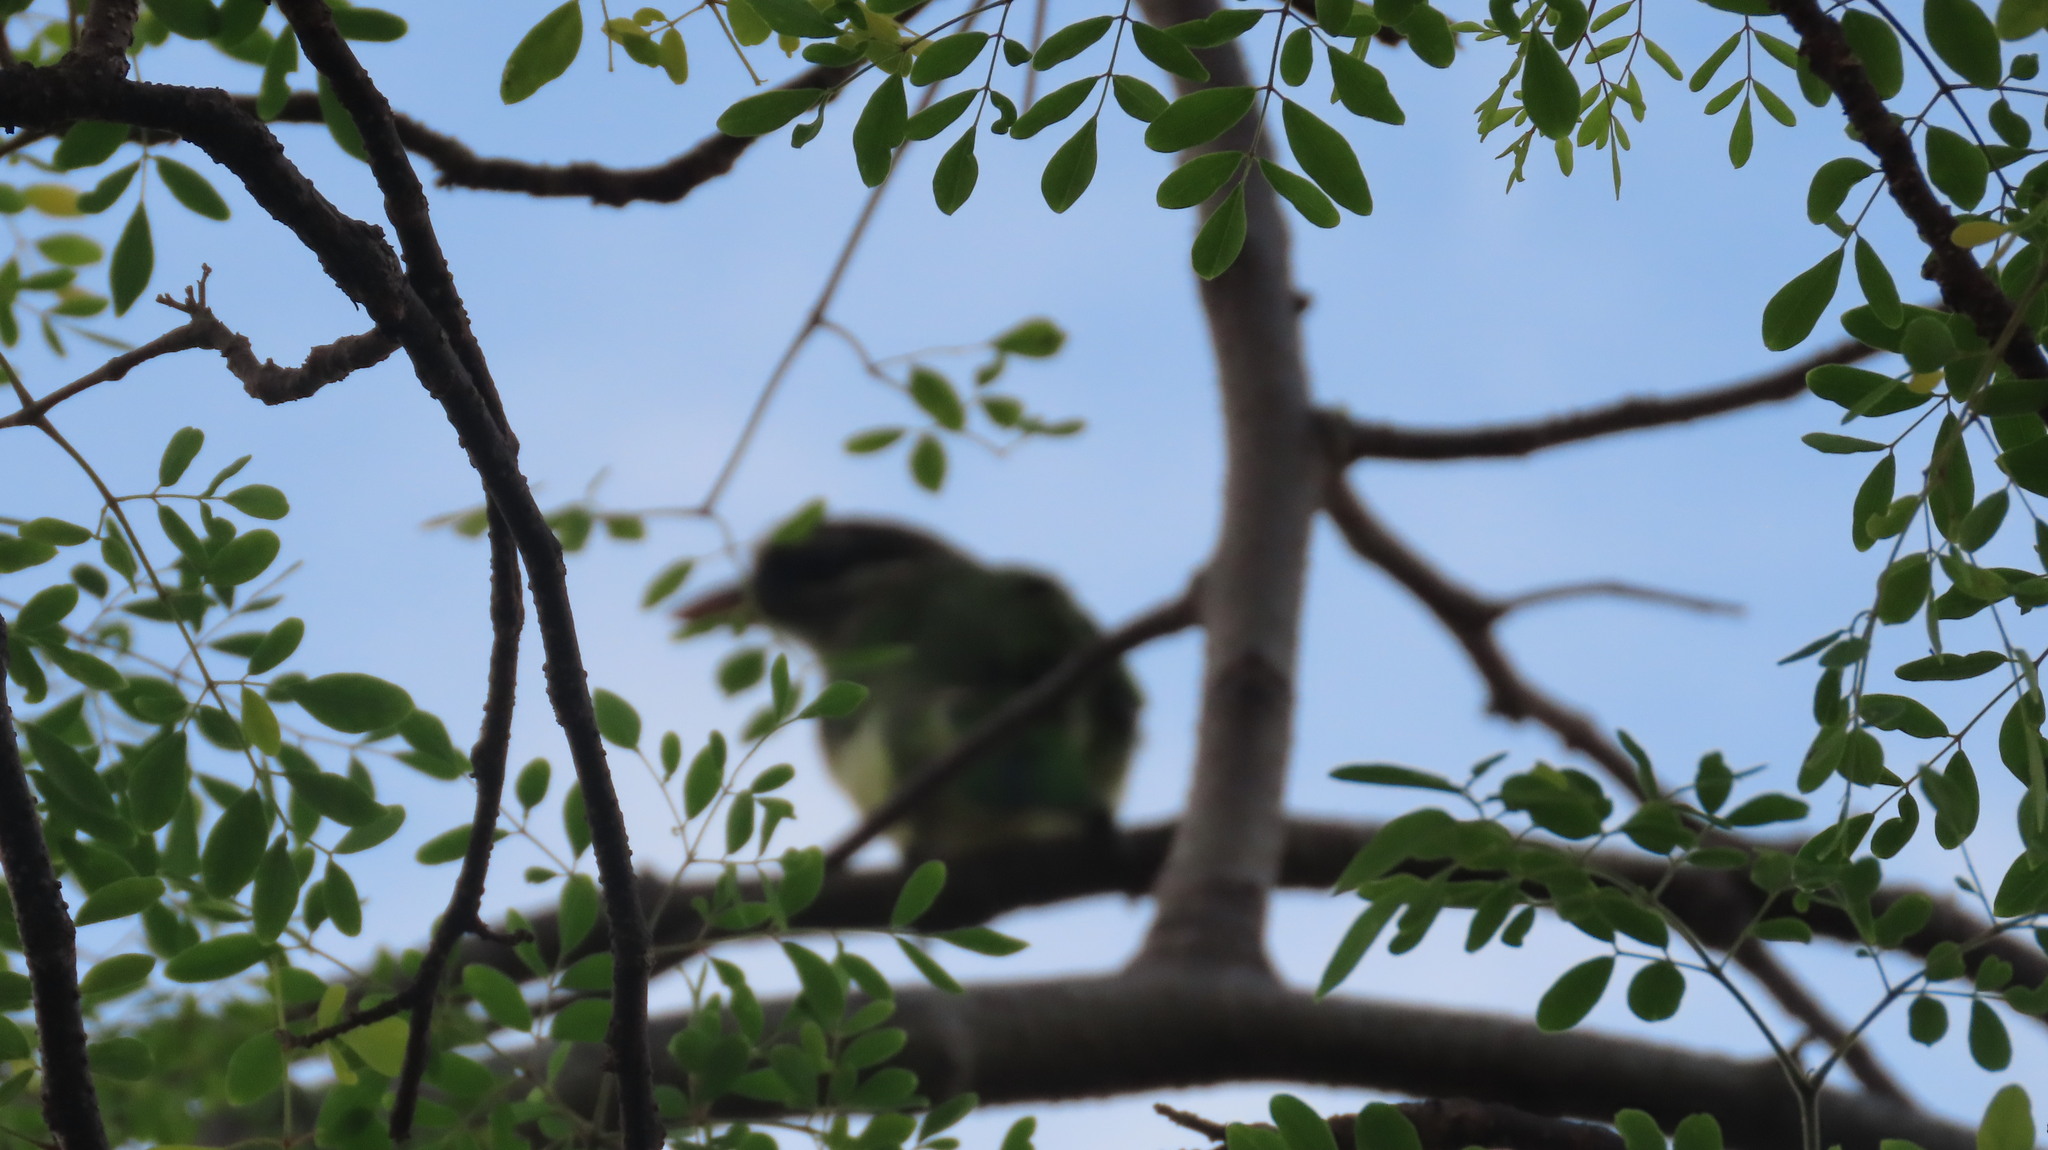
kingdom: Animalia
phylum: Chordata
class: Aves
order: Piciformes
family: Megalaimidae
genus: Psilopogon
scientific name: Psilopogon viridis
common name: White-cheeked barbet
